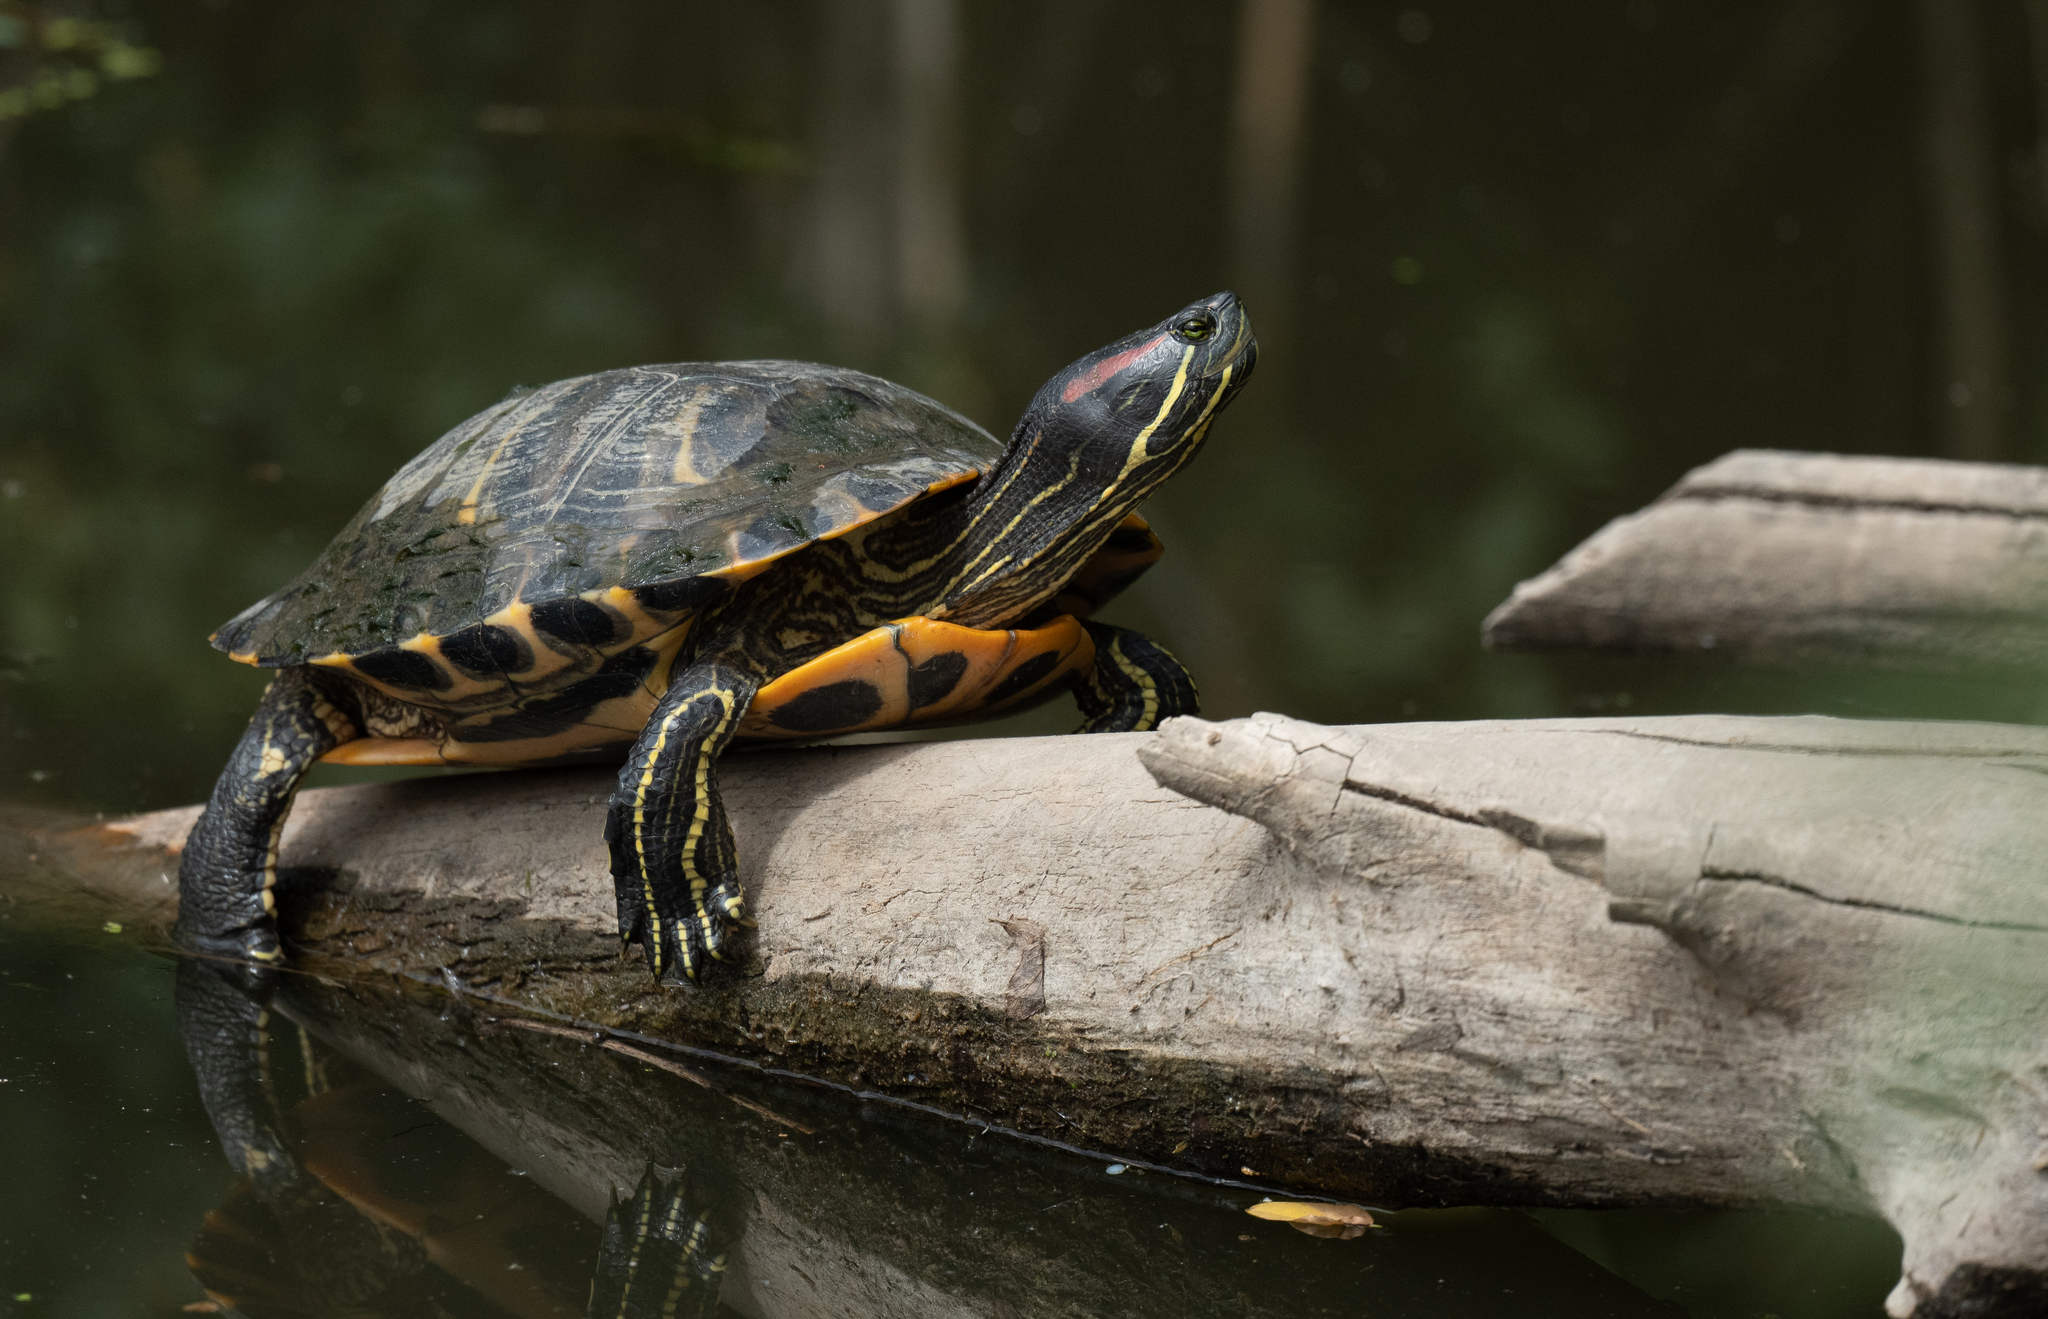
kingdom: Animalia
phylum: Chordata
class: Testudines
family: Emydidae
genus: Trachemys
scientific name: Trachemys scripta
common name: Slider
